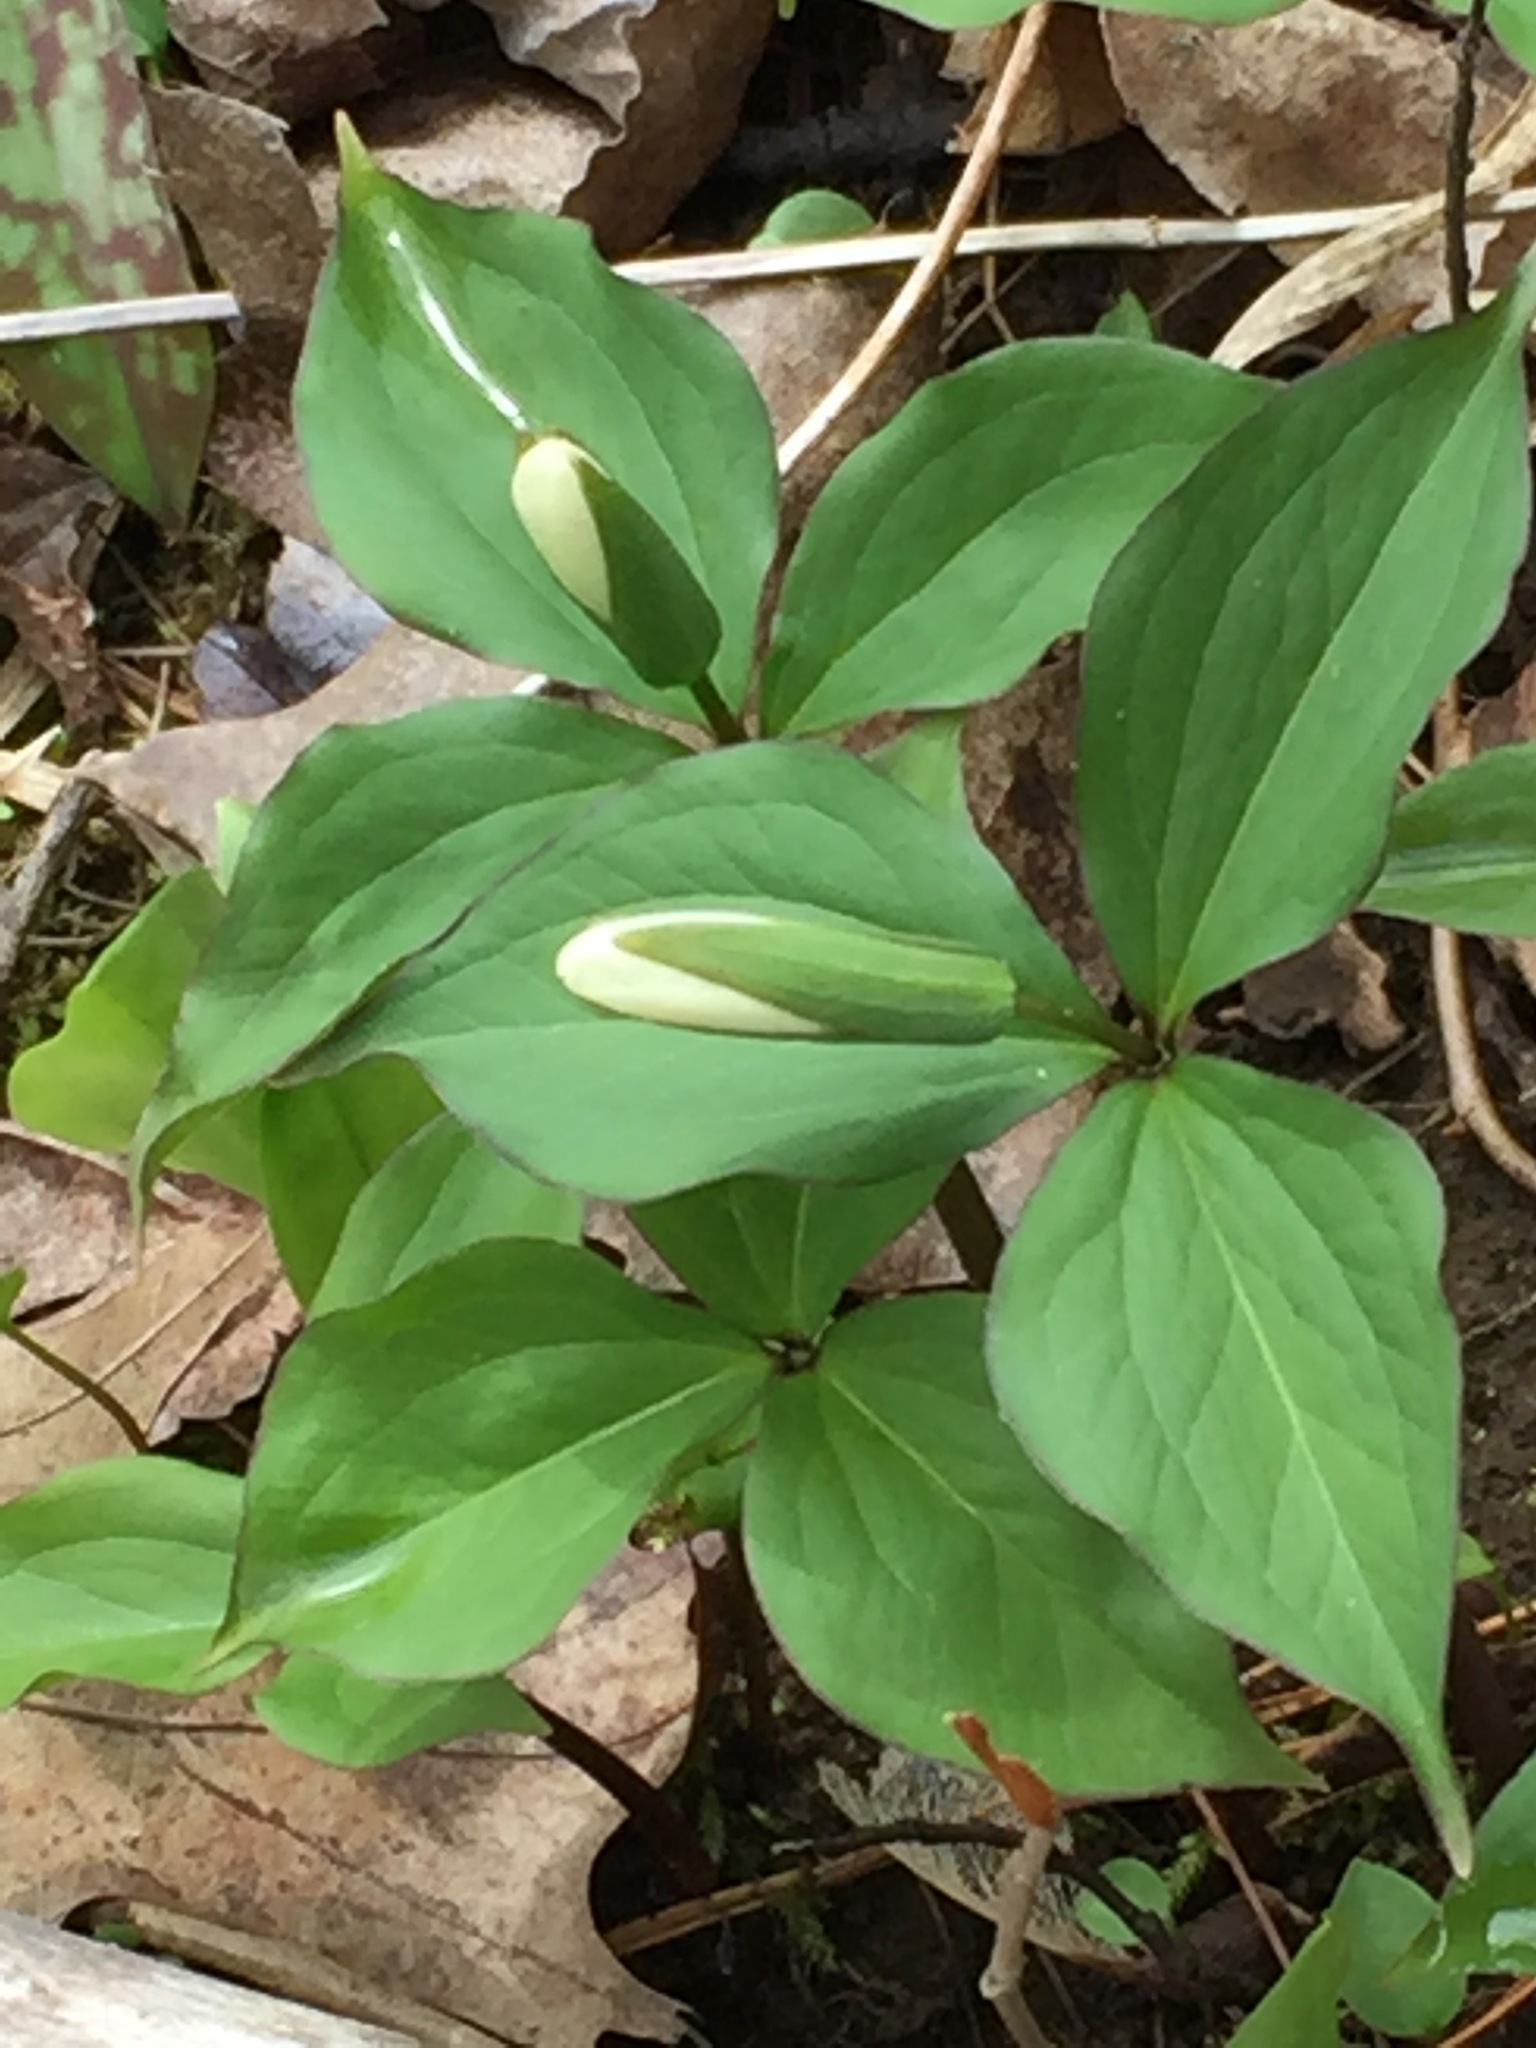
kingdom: Plantae
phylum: Tracheophyta
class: Liliopsida
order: Liliales
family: Melanthiaceae
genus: Trillium
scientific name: Trillium grandiflorum
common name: Great white trillium
